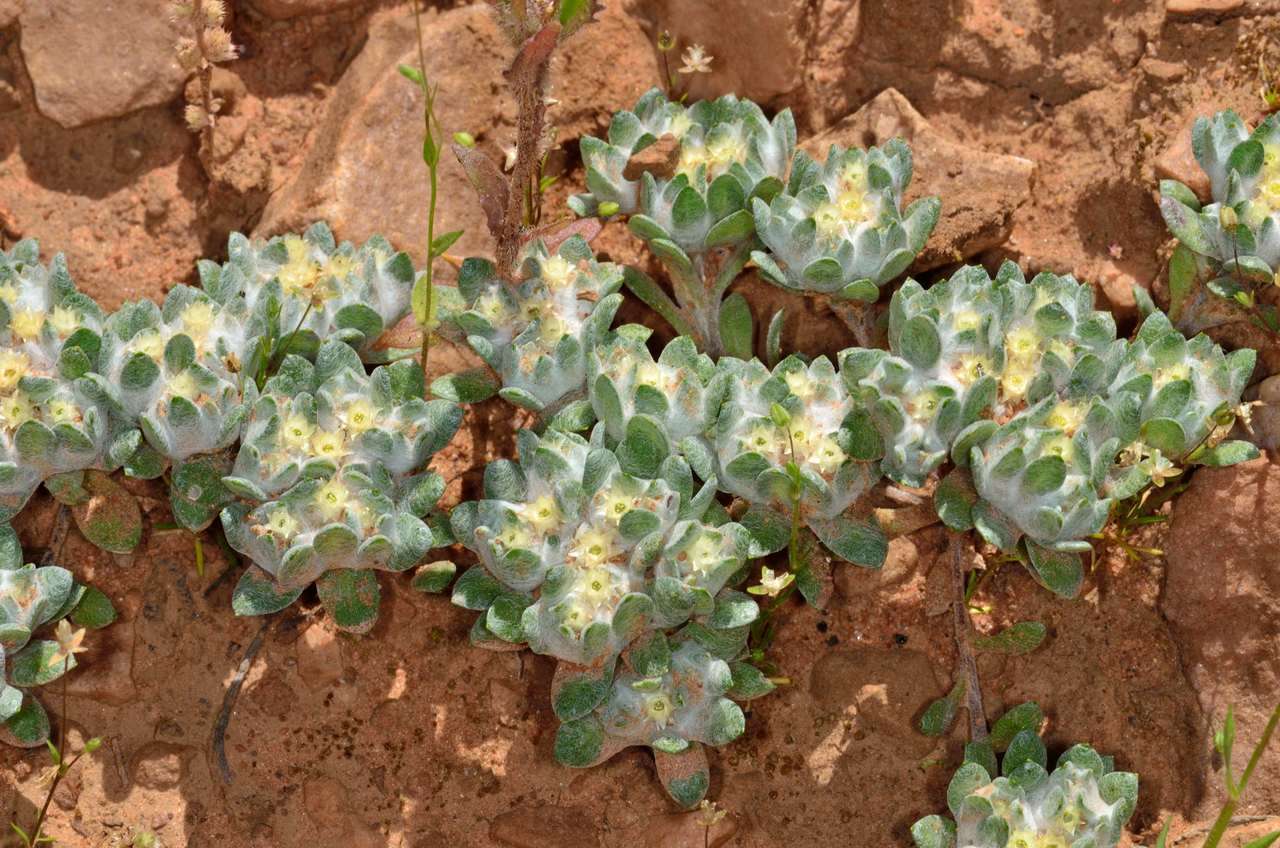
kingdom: Plantae
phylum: Tracheophyta
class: Magnoliopsida
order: Asterales
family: Asteraceae
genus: Actinobole
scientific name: Actinobole uliginosum
